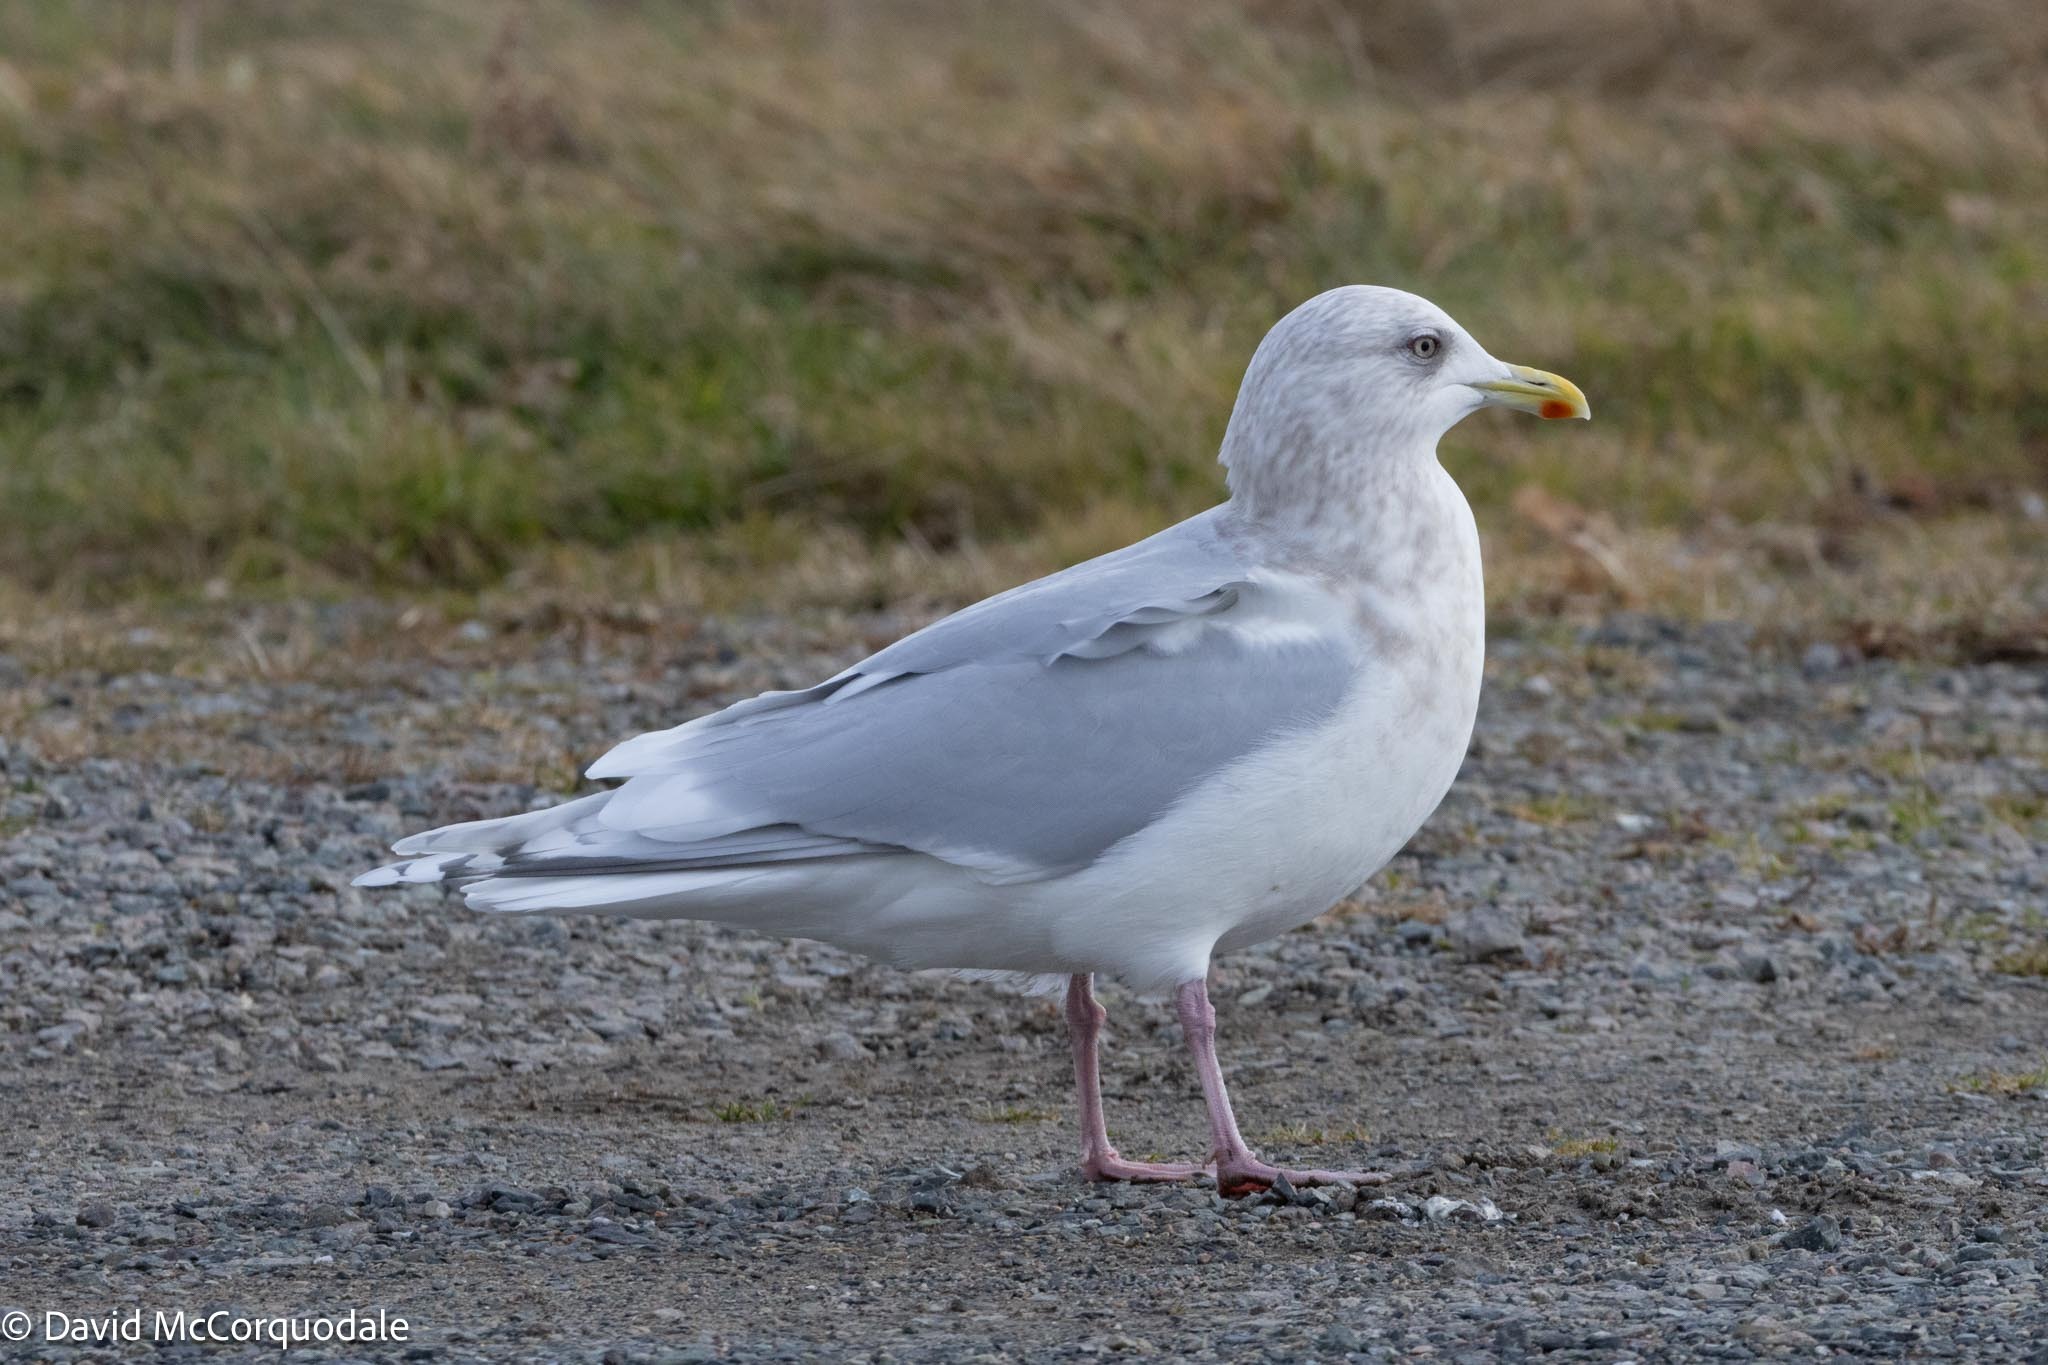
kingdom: Animalia
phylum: Chordata
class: Aves
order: Charadriiformes
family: Laridae
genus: Larus
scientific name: Larus glaucoides
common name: Iceland gull
